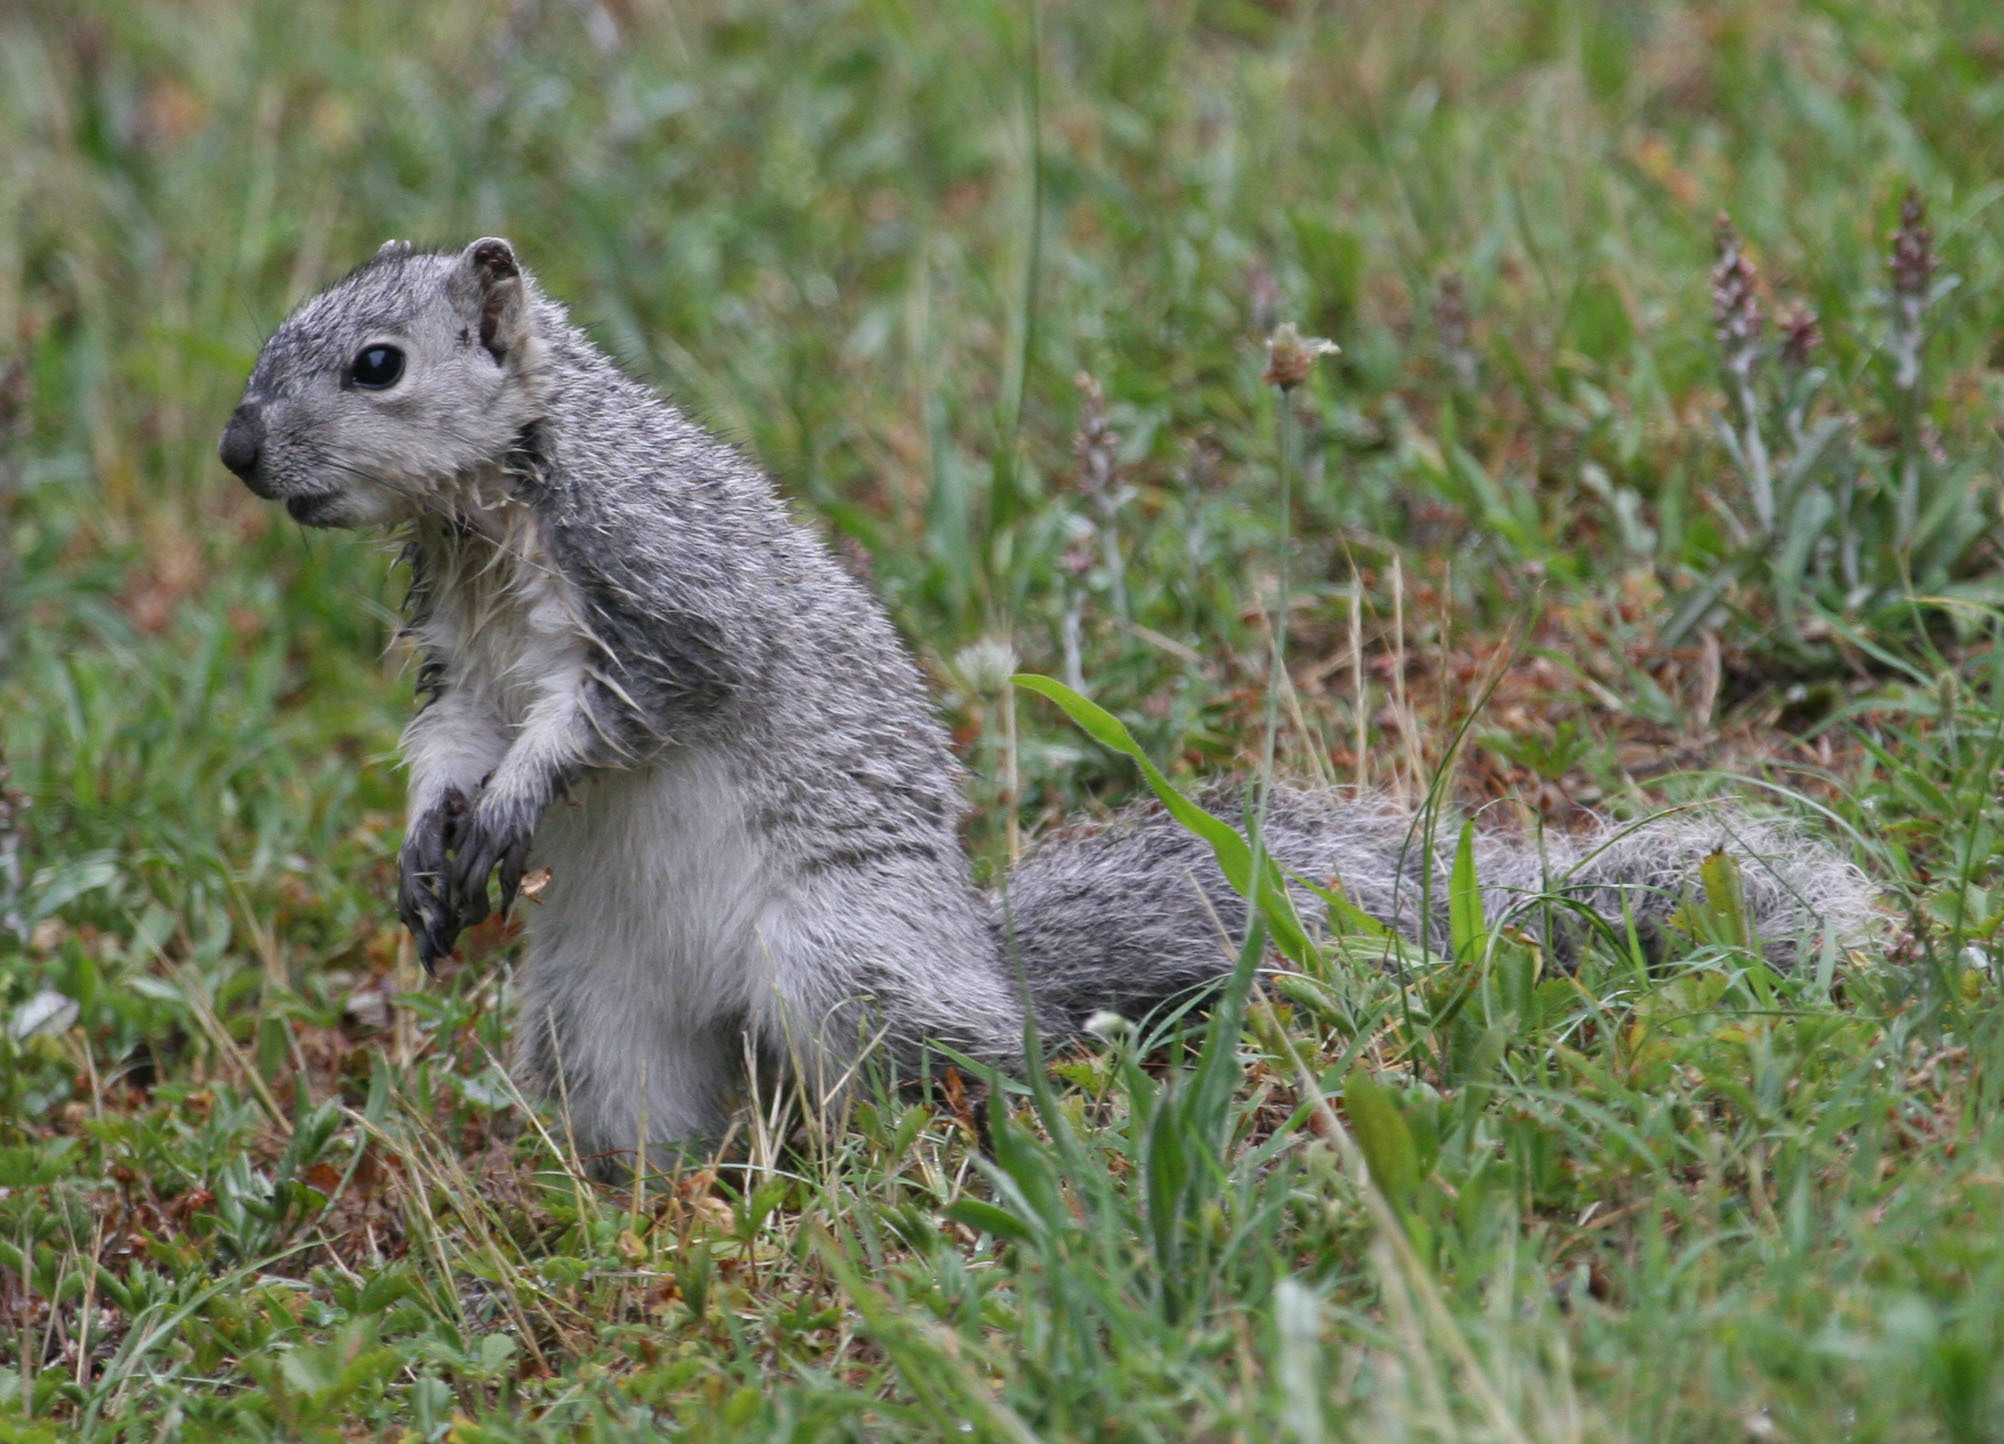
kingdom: Animalia
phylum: Chordata
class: Mammalia
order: Rodentia
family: Sciuridae
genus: Sciurus
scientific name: Sciurus niger
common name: Fox squirrel
